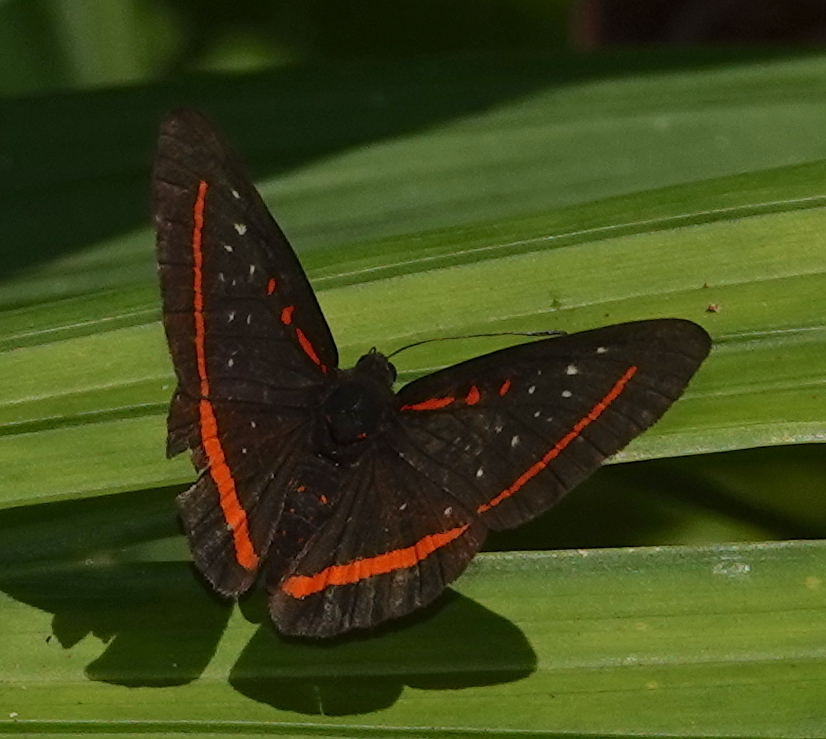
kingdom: Animalia
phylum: Arthropoda
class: Insecta
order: Lepidoptera
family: Riodinidae
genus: Amarynthis
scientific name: Amarynthis meneria
